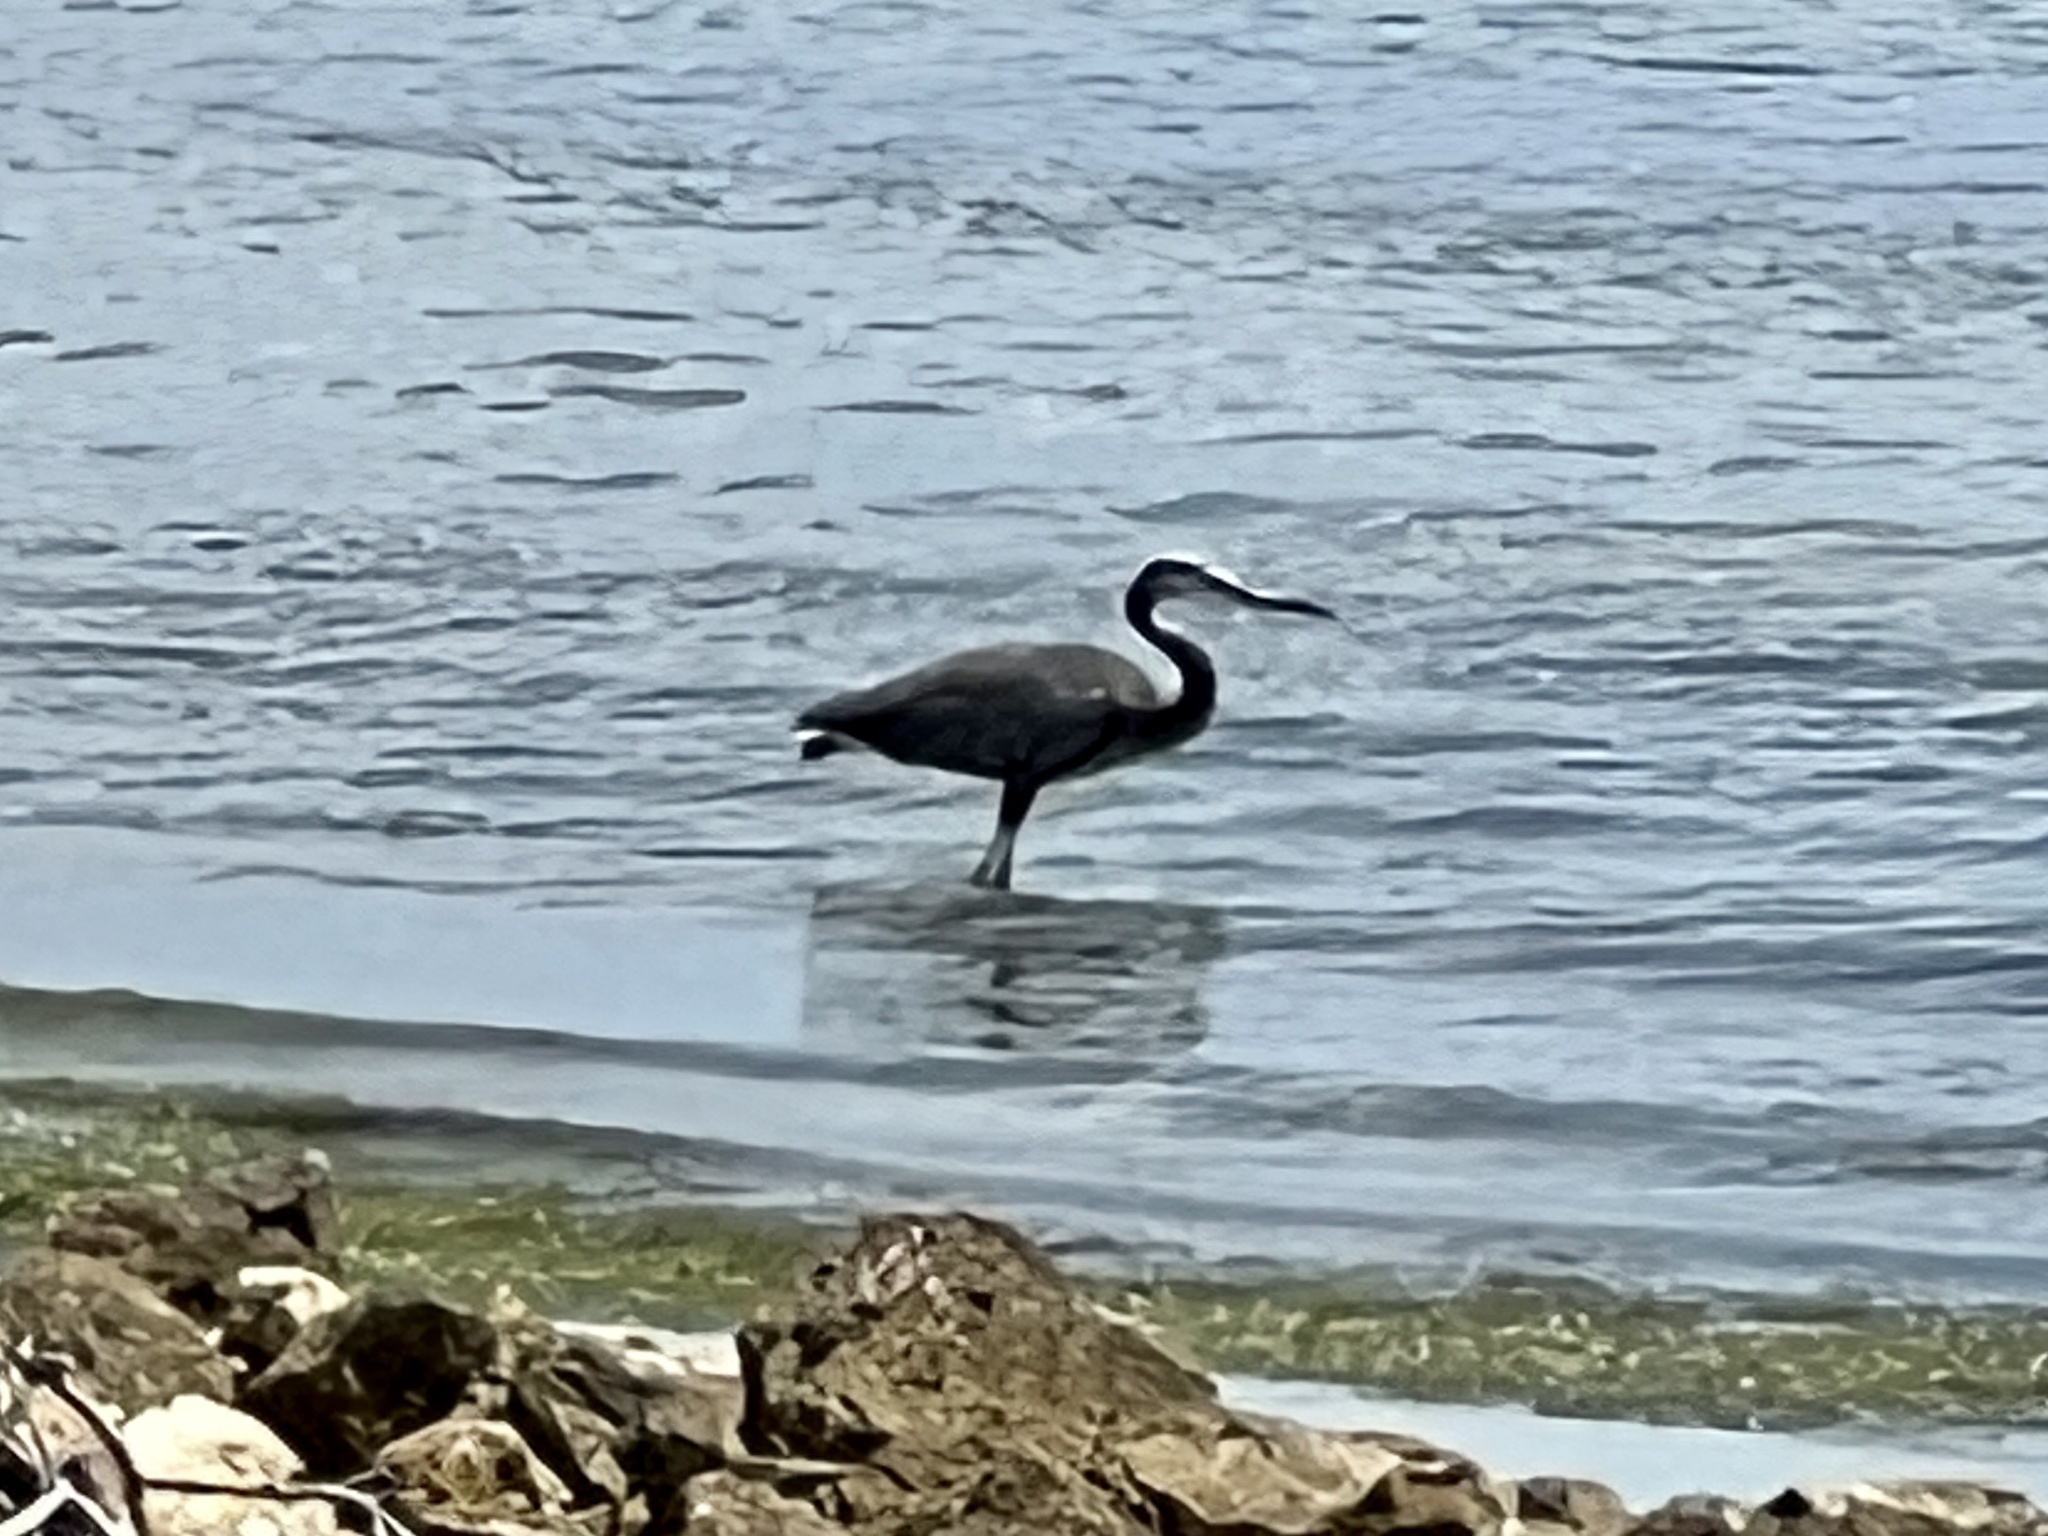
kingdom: Animalia
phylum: Chordata
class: Aves
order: Pelecaniformes
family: Ardeidae
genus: Ardea
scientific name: Ardea herodias
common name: Great blue heron
